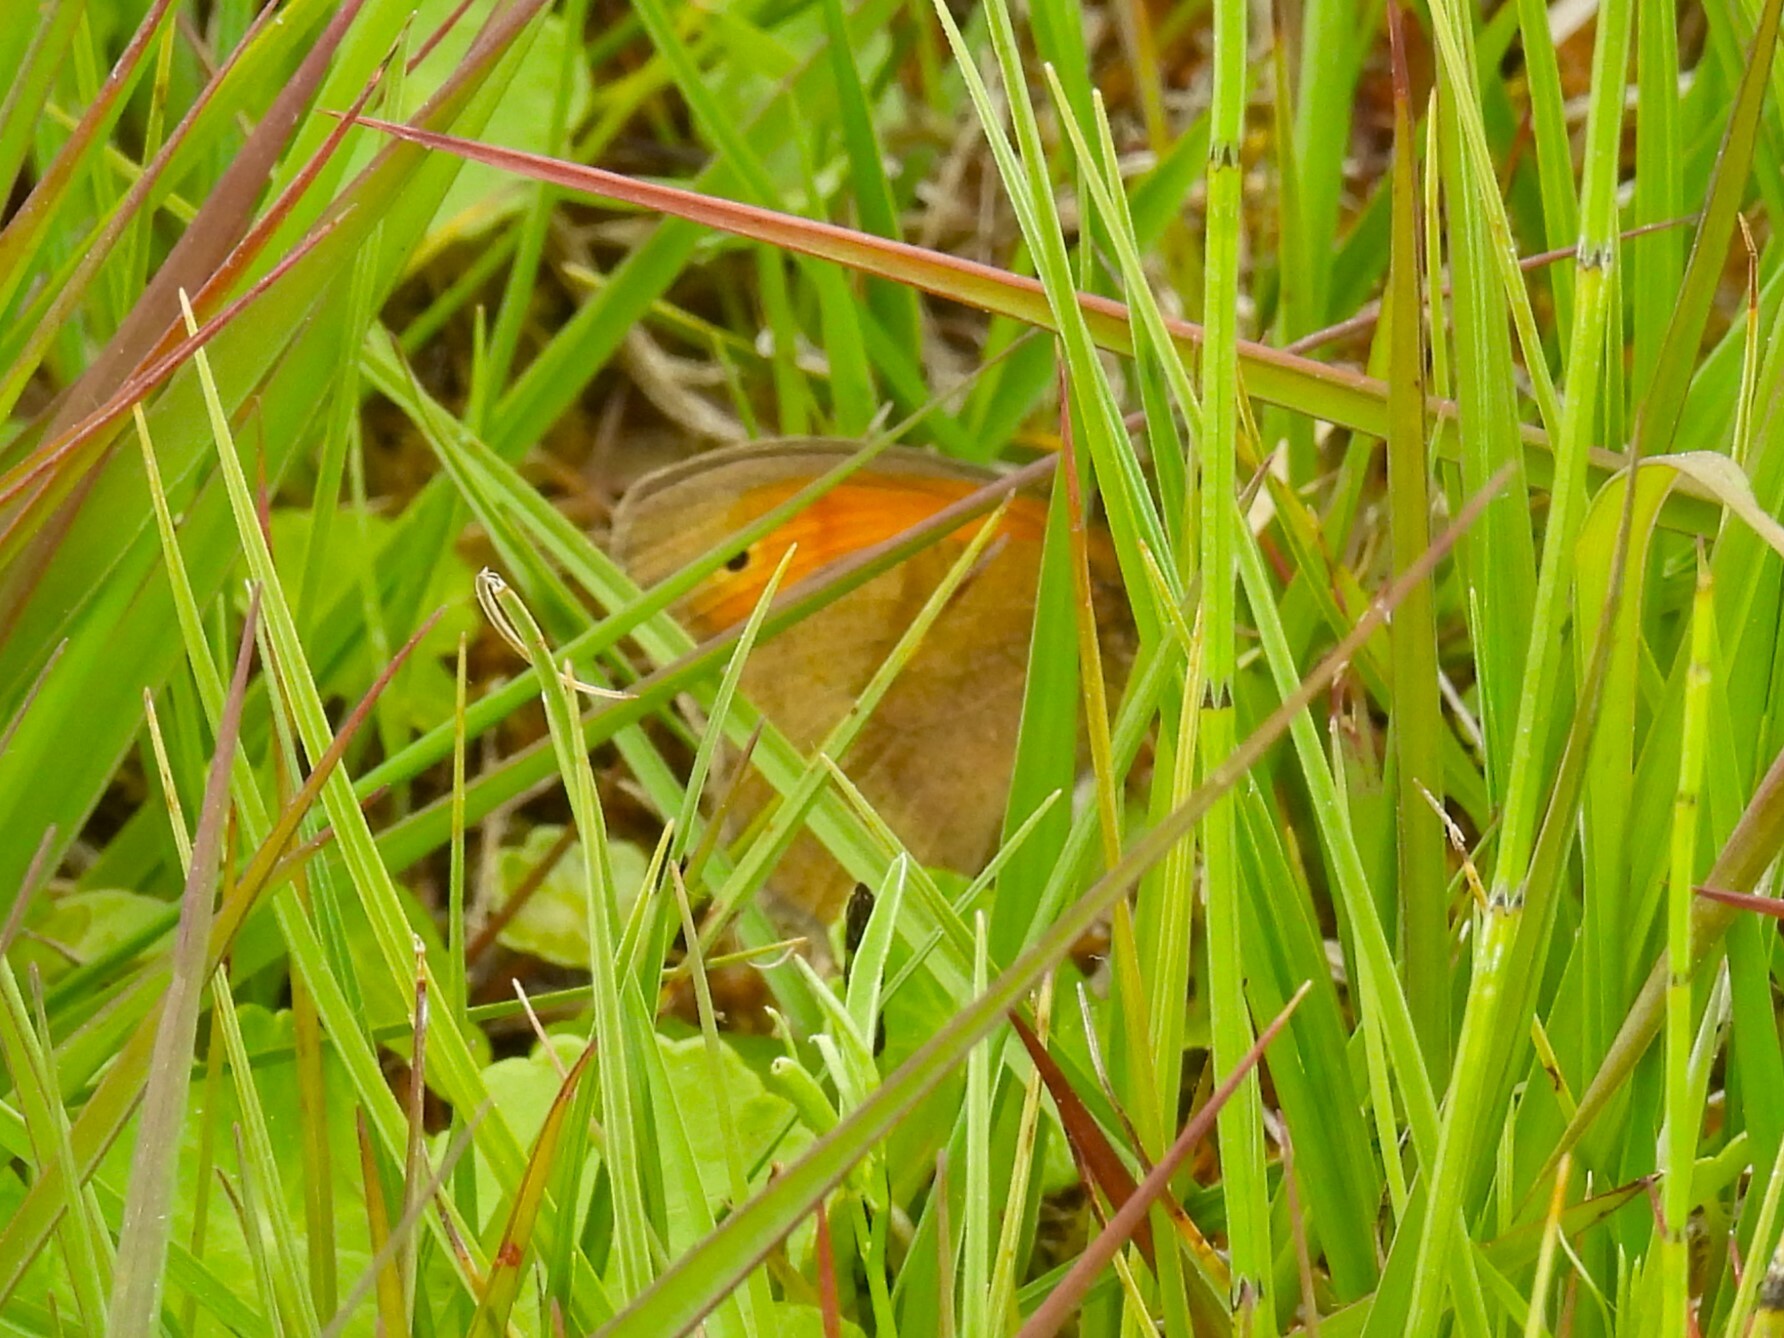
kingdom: Animalia
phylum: Arthropoda
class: Insecta
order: Lepidoptera
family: Nymphalidae
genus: Maniola
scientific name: Maniola jurtina
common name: Meadow brown
